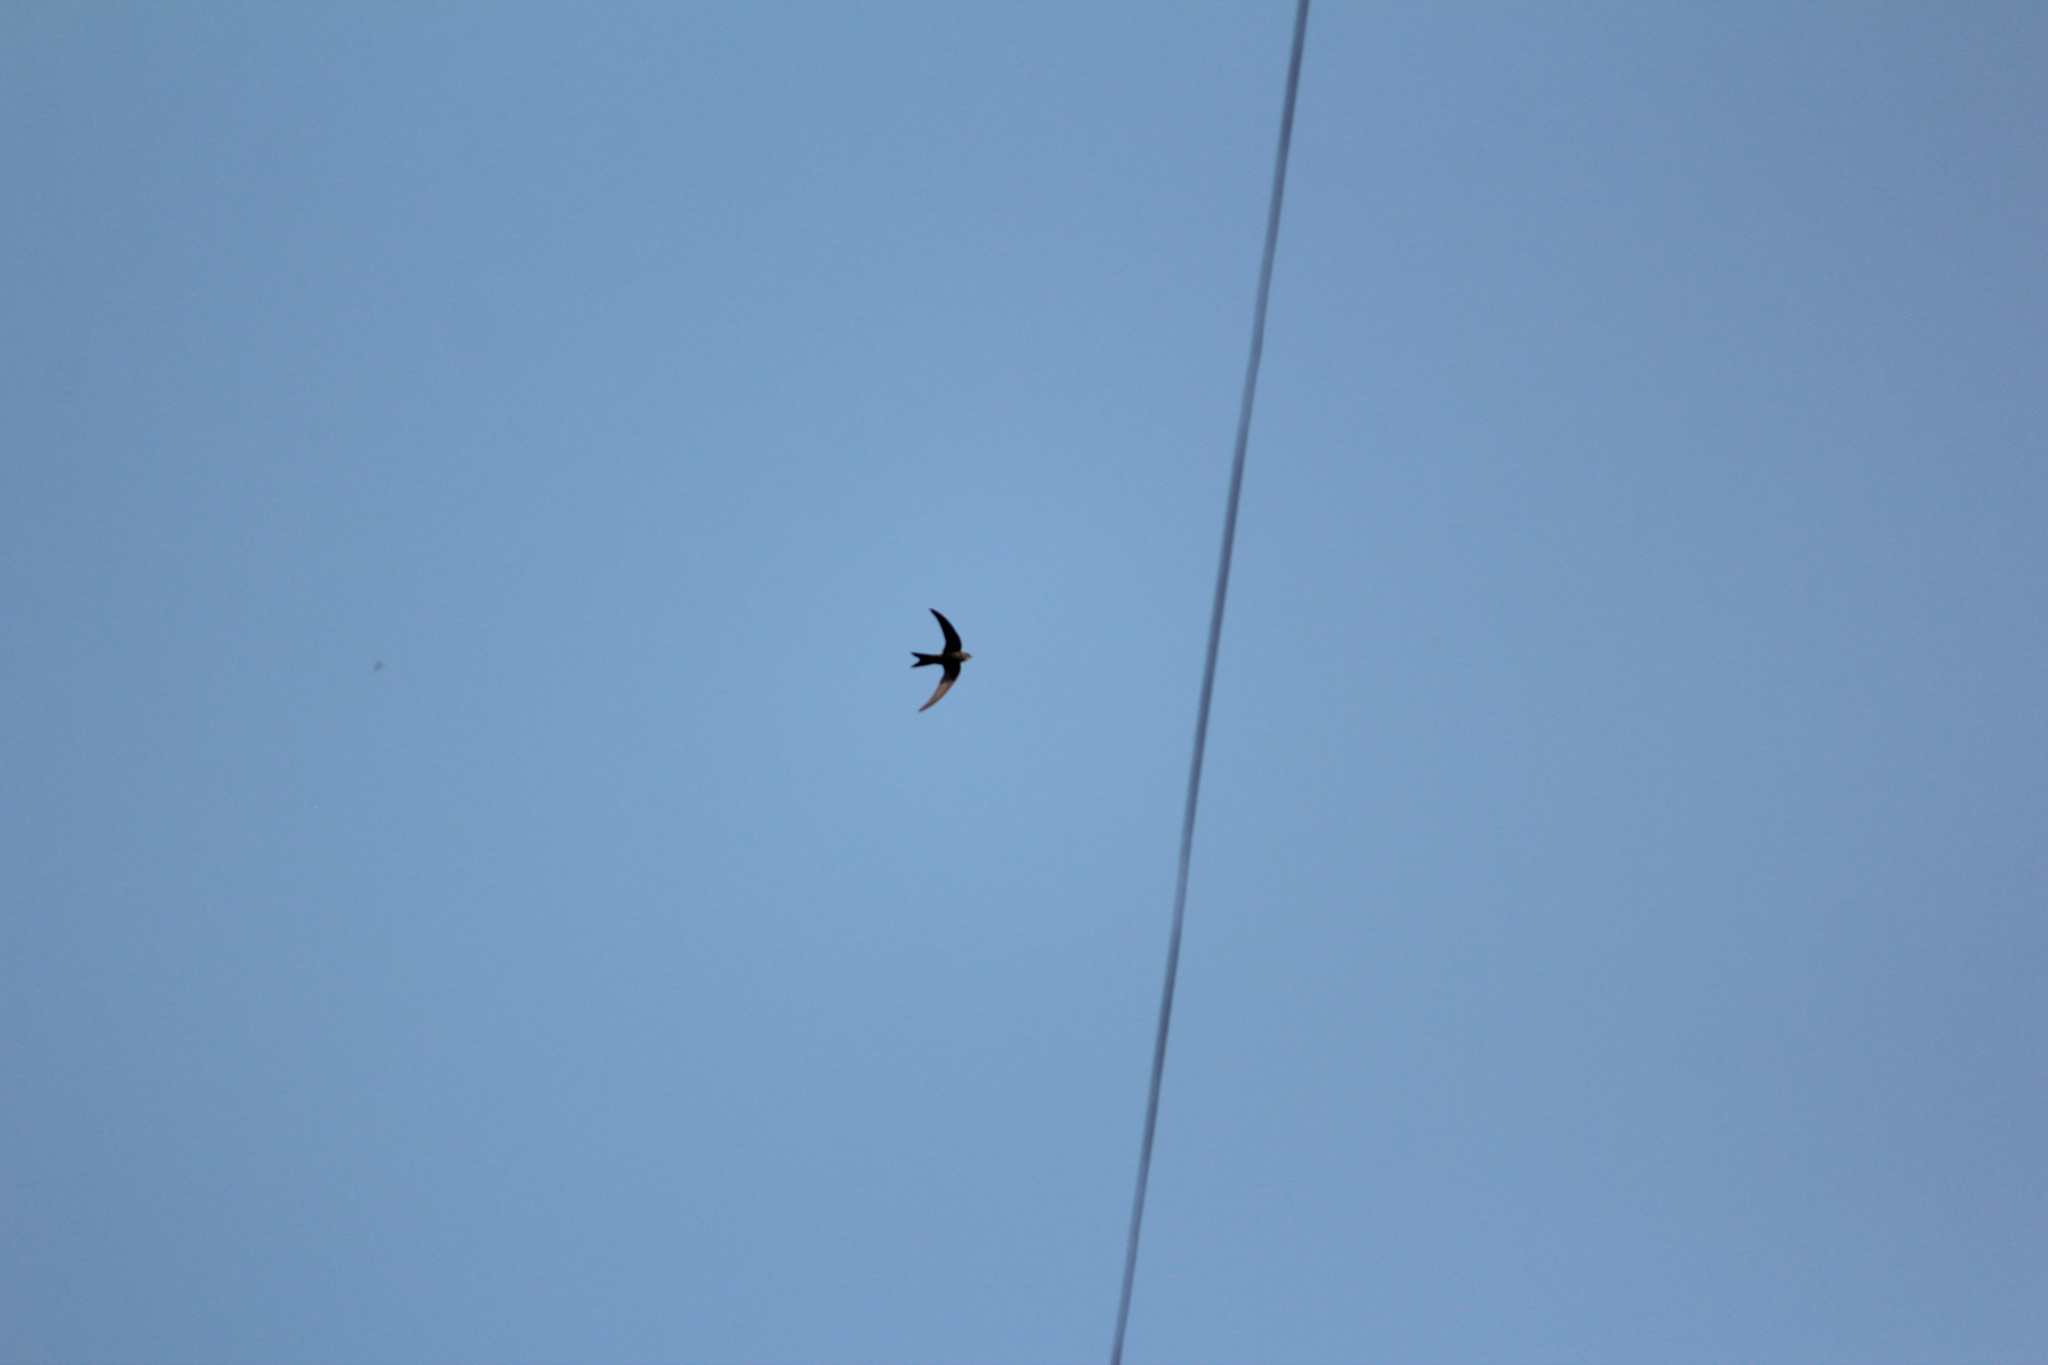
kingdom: Animalia
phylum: Chordata
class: Aves
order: Apodiformes
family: Apodidae
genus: Apus
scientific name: Apus pacificus
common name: Pacific swift
